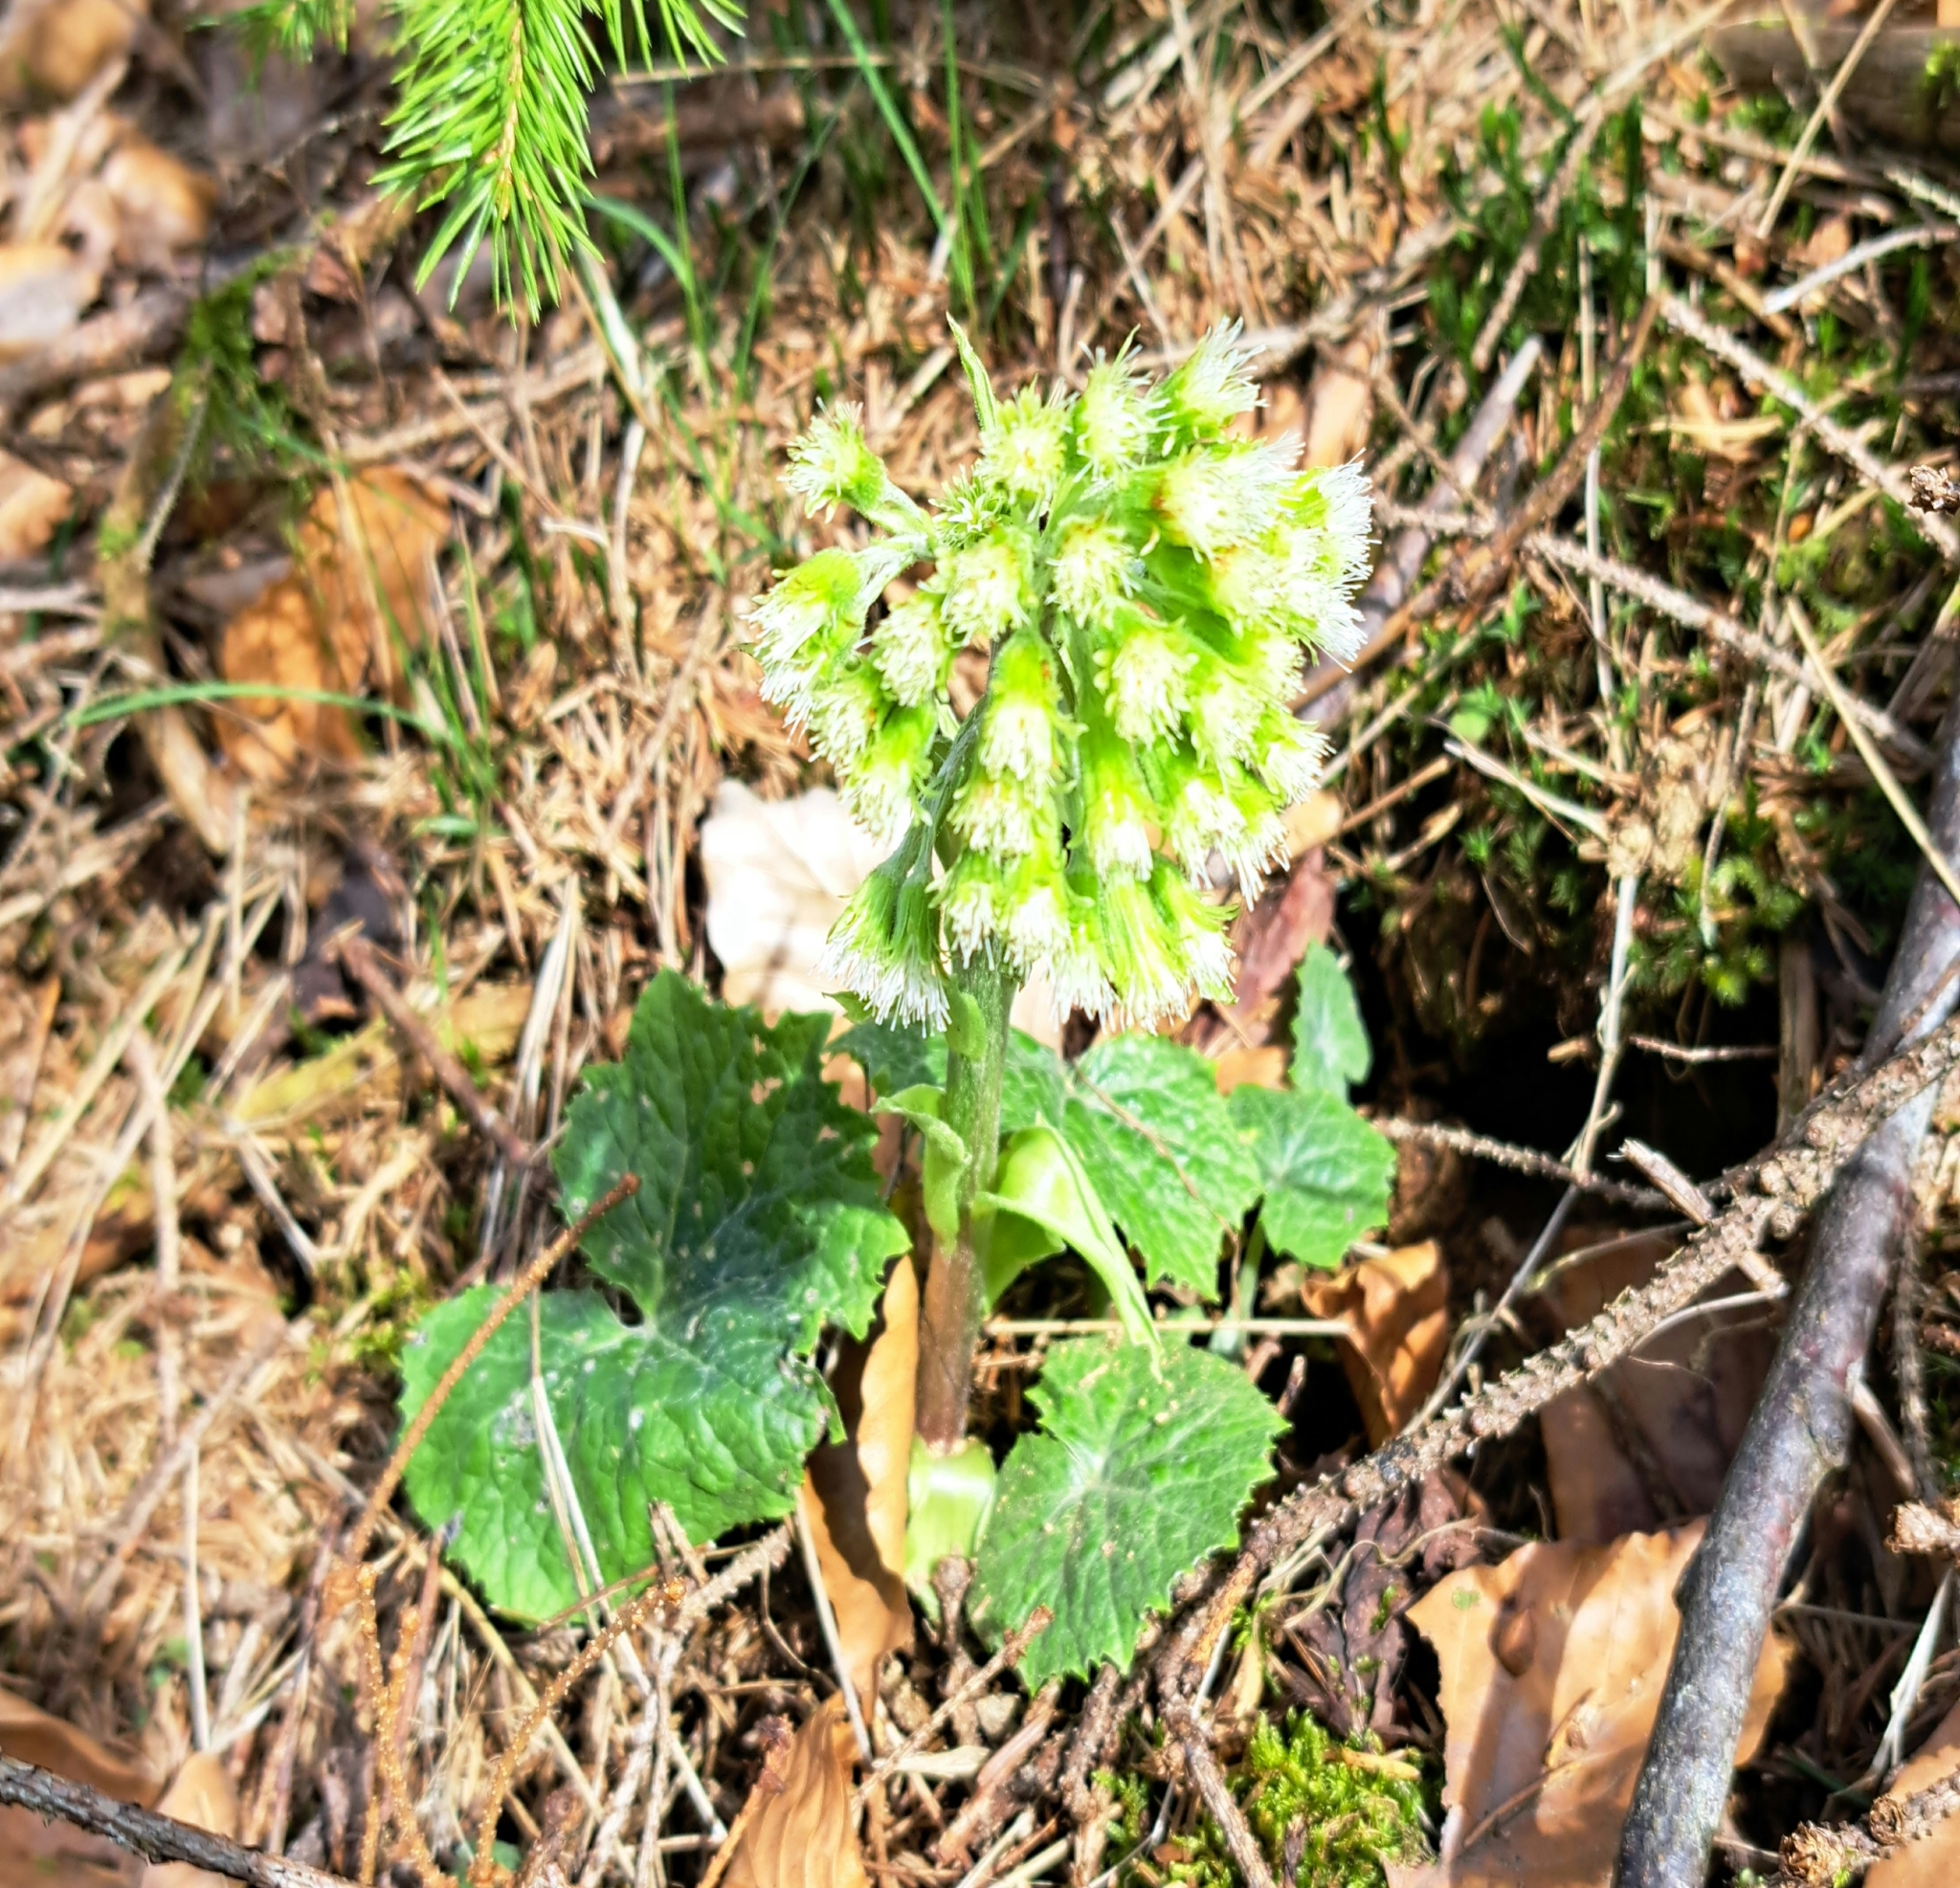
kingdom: Plantae
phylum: Tracheophyta
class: Magnoliopsida
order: Asterales
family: Asteraceae
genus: Petasites
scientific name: Petasites albus
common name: White butterbur
